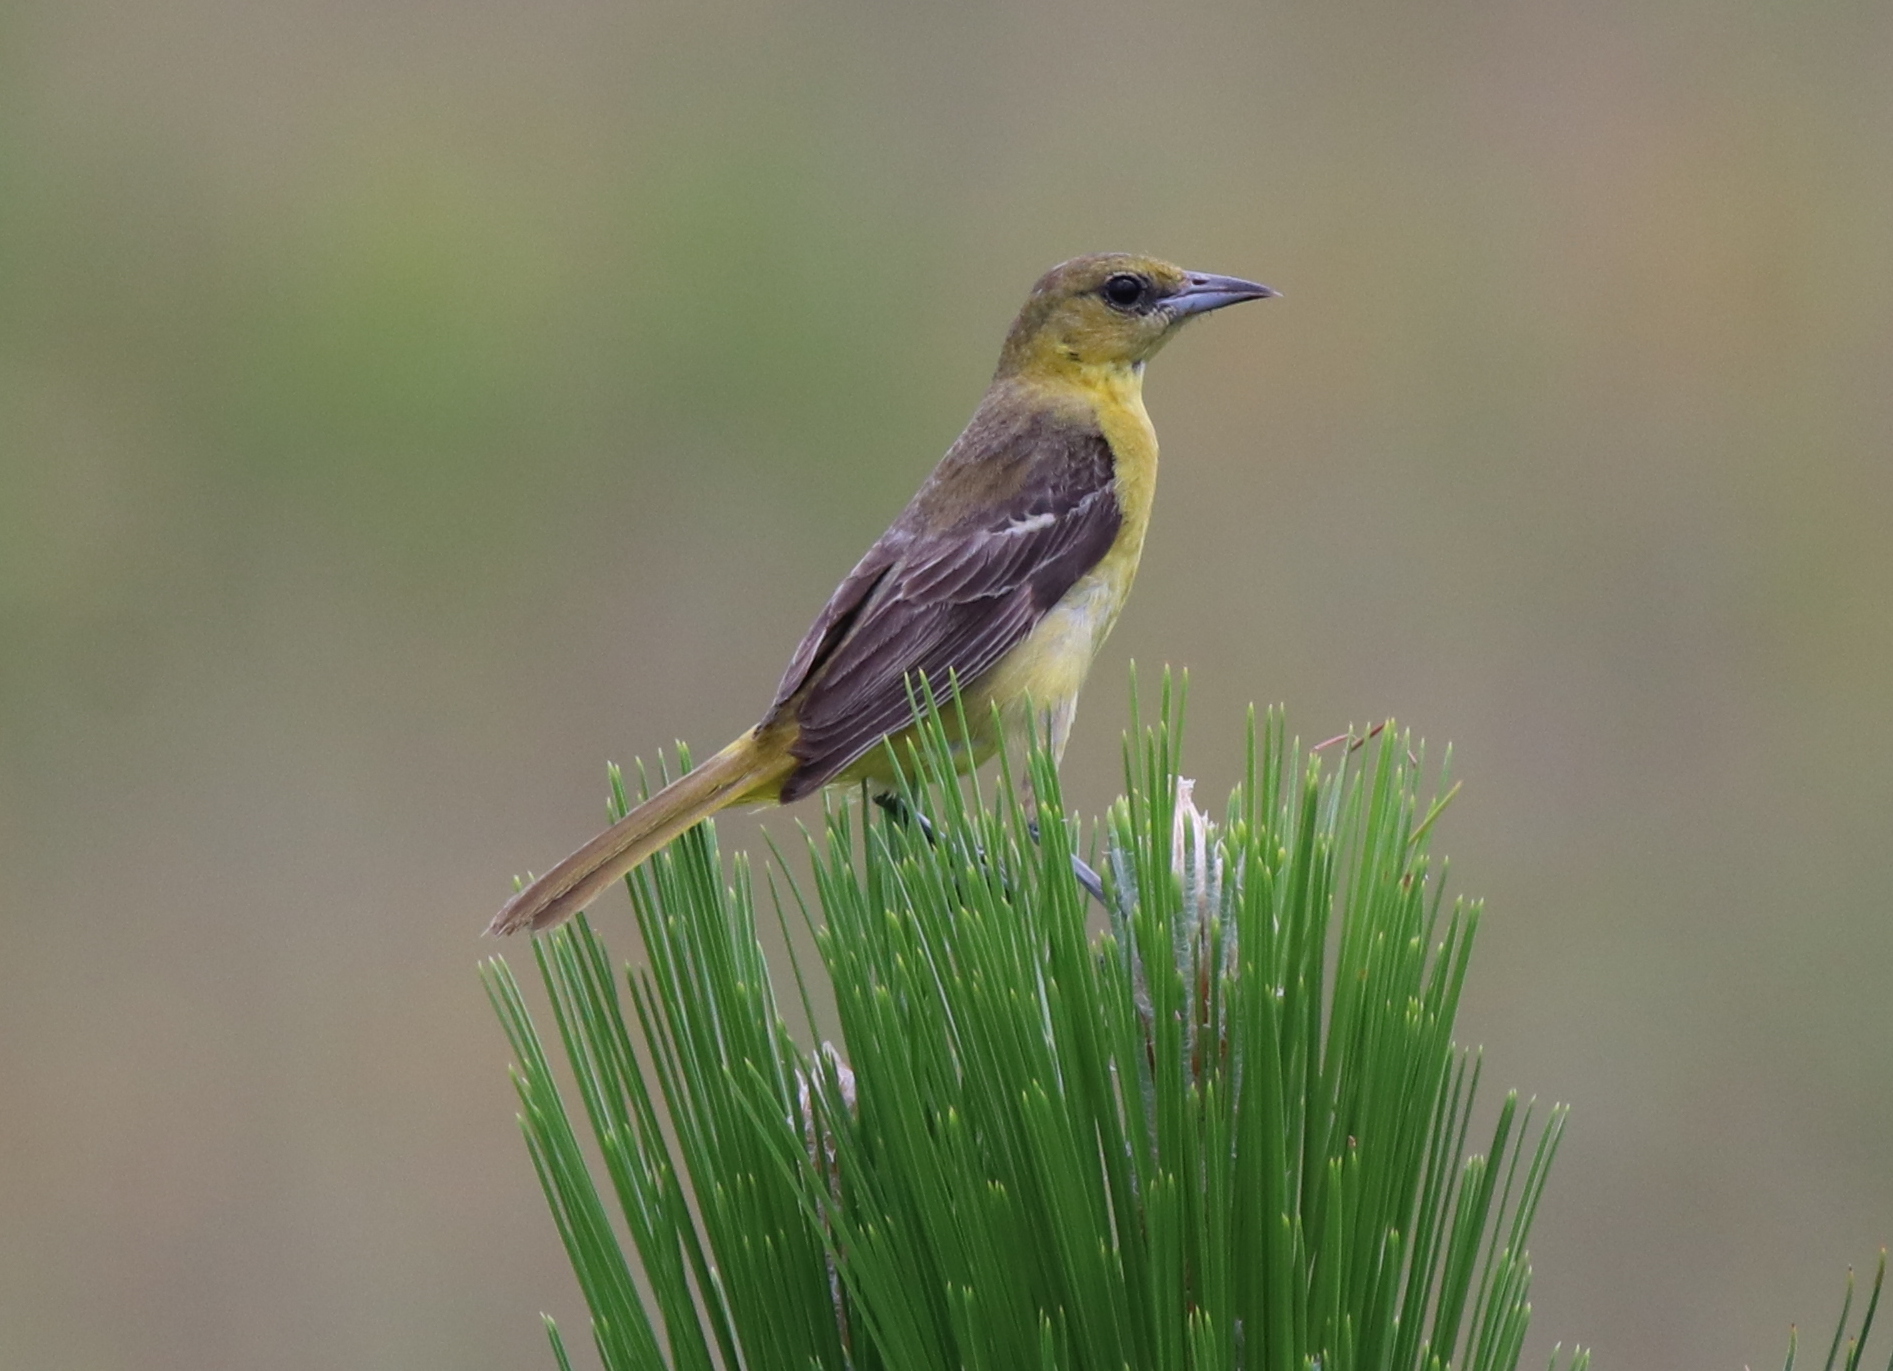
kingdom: Animalia
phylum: Chordata
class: Aves
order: Passeriformes
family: Icteridae
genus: Icterus
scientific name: Icterus spurius
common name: Orchard oriole
